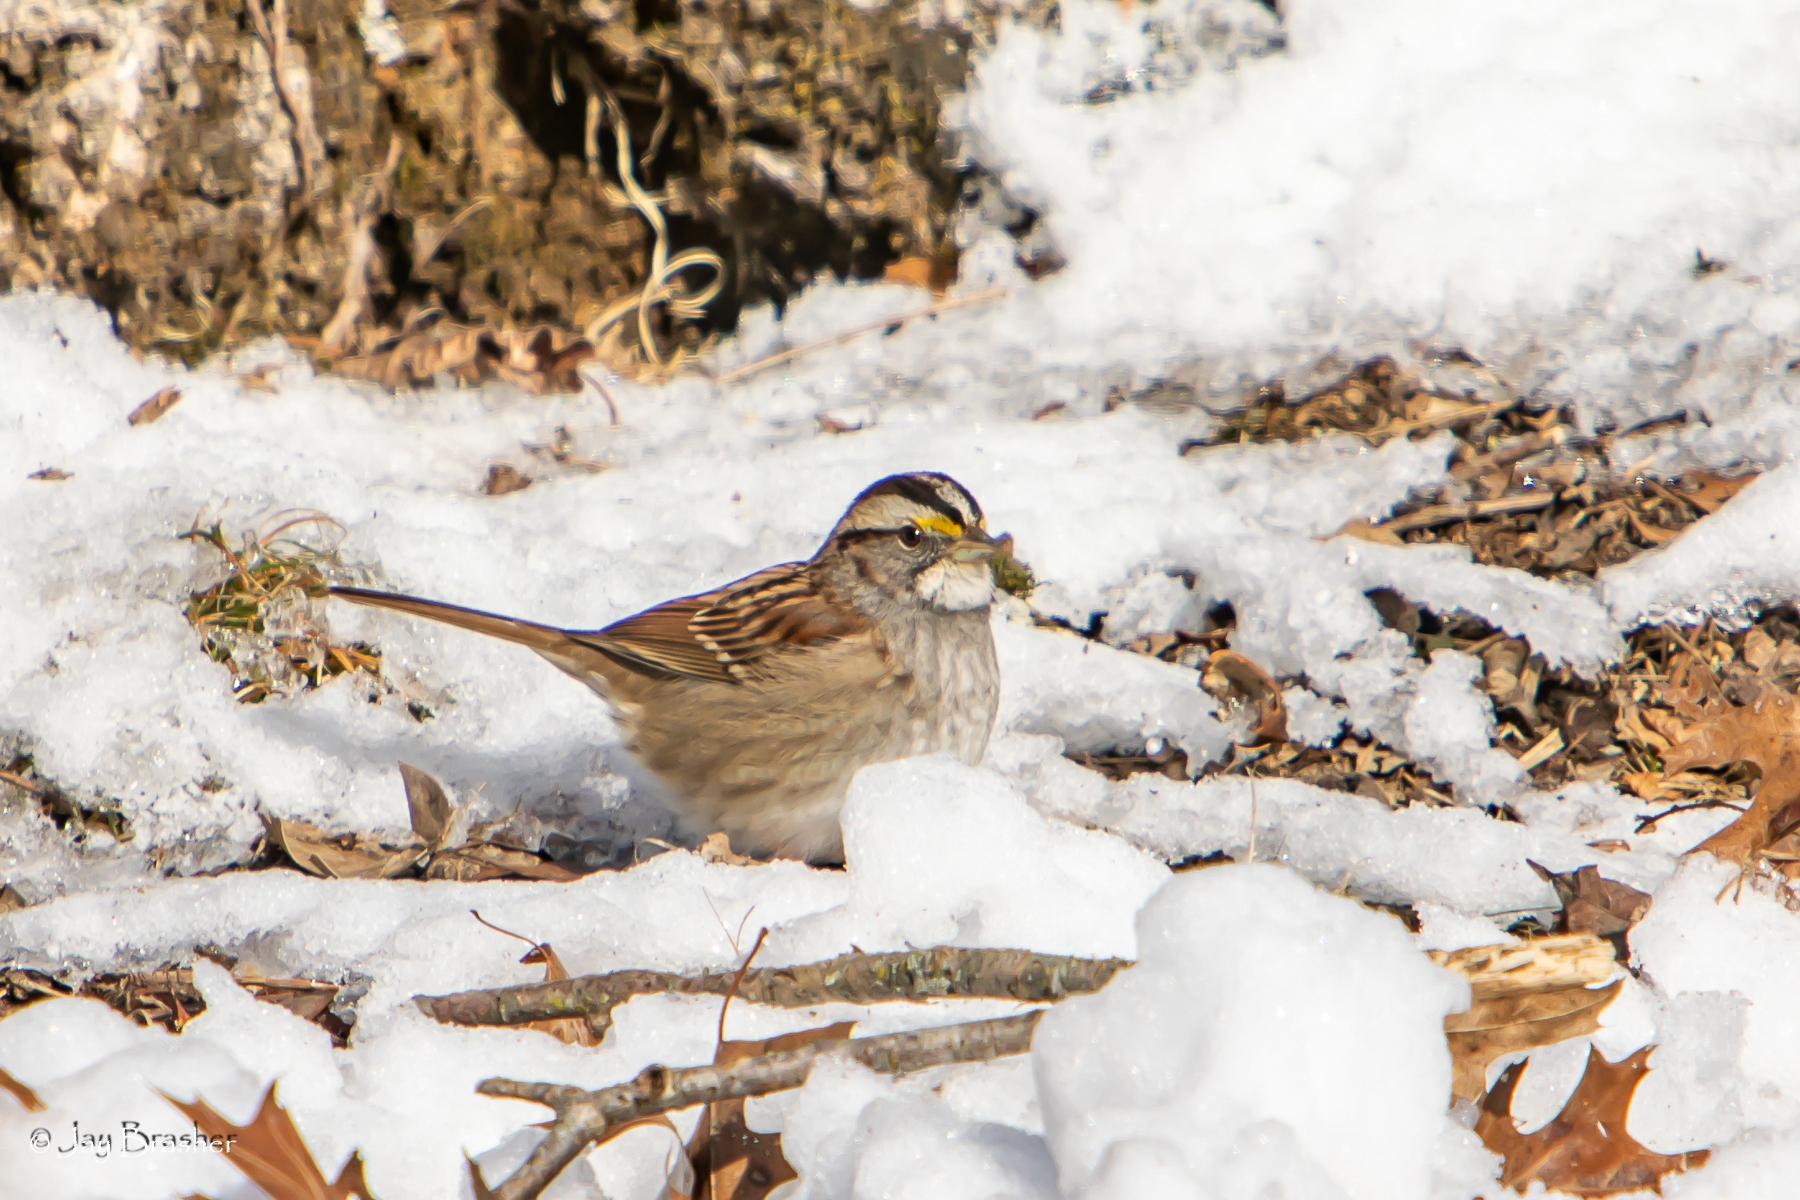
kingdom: Animalia
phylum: Chordata
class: Aves
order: Passeriformes
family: Passerellidae
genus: Zonotrichia
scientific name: Zonotrichia albicollis
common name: White-throated sparrow
